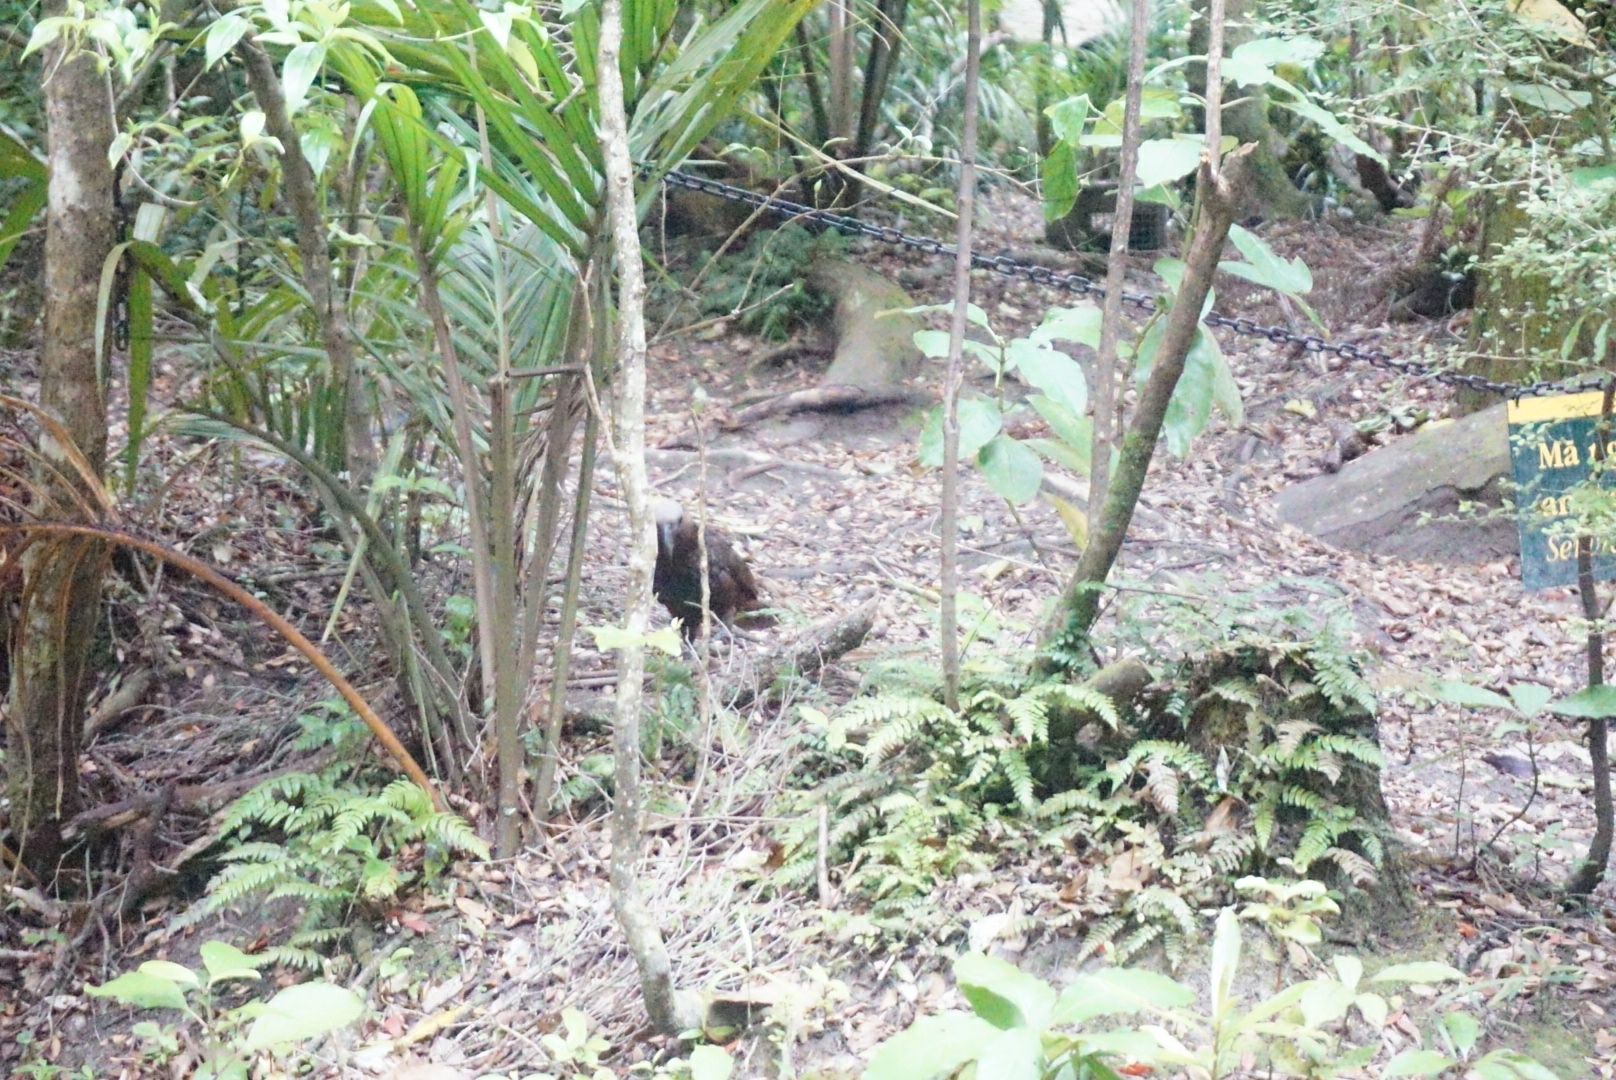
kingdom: Animalia
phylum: Chordata
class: Aves
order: Psittaciformes
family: Psittacidae
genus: Nestor
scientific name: Nestor meridionalis
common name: New zealand kaka
